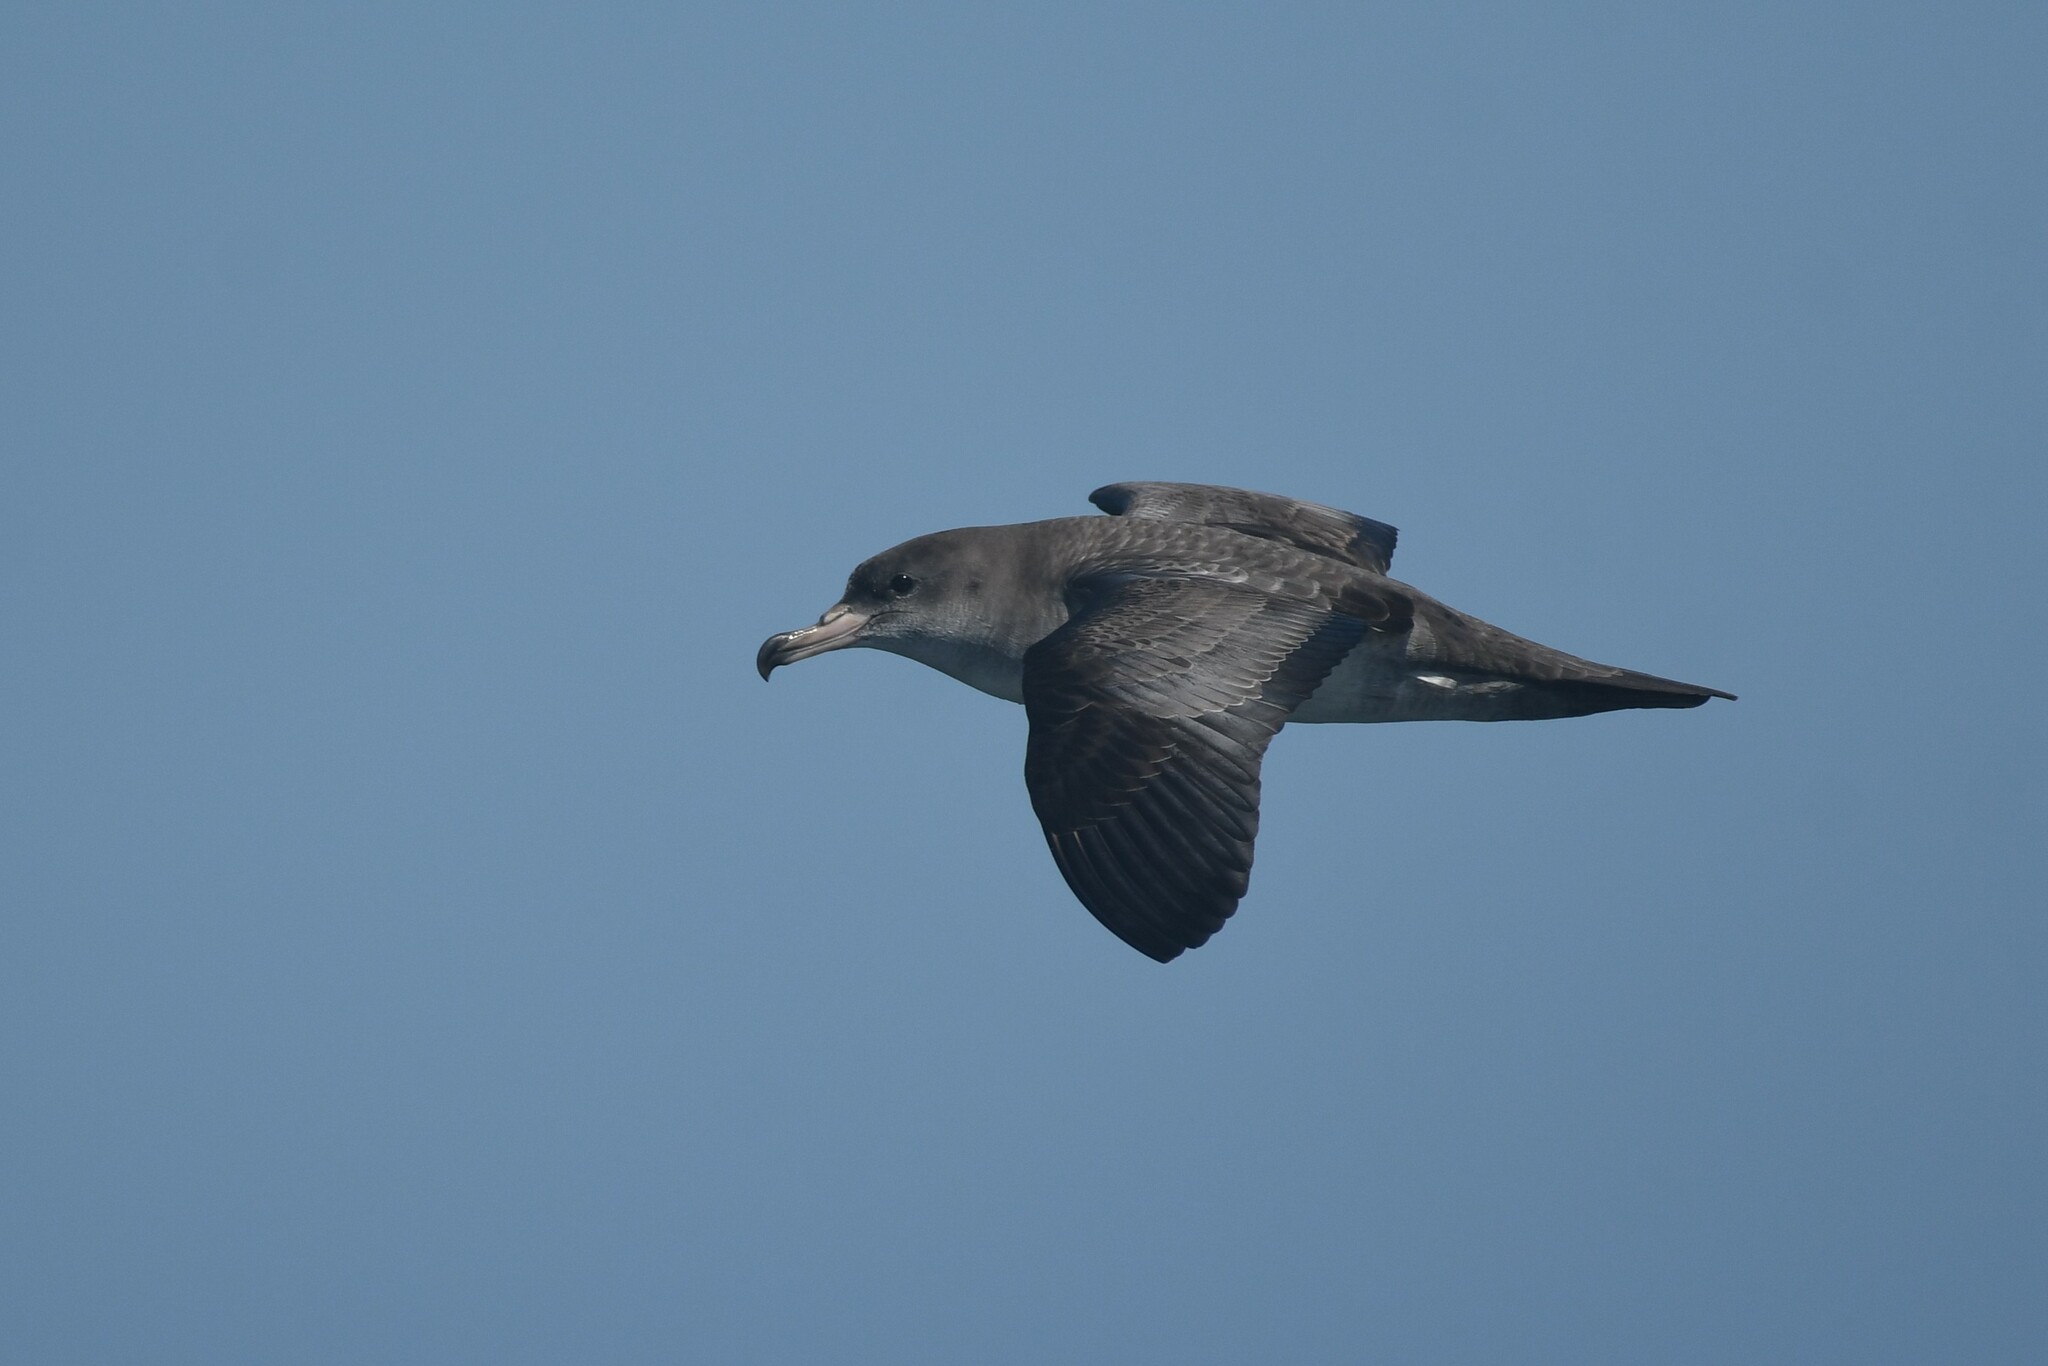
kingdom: Animalia
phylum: Chordata
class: Aves
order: Procellariiformes
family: Procellariidae
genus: Puffinus
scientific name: Puffinus creatopus
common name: Pink-footed shearwater
